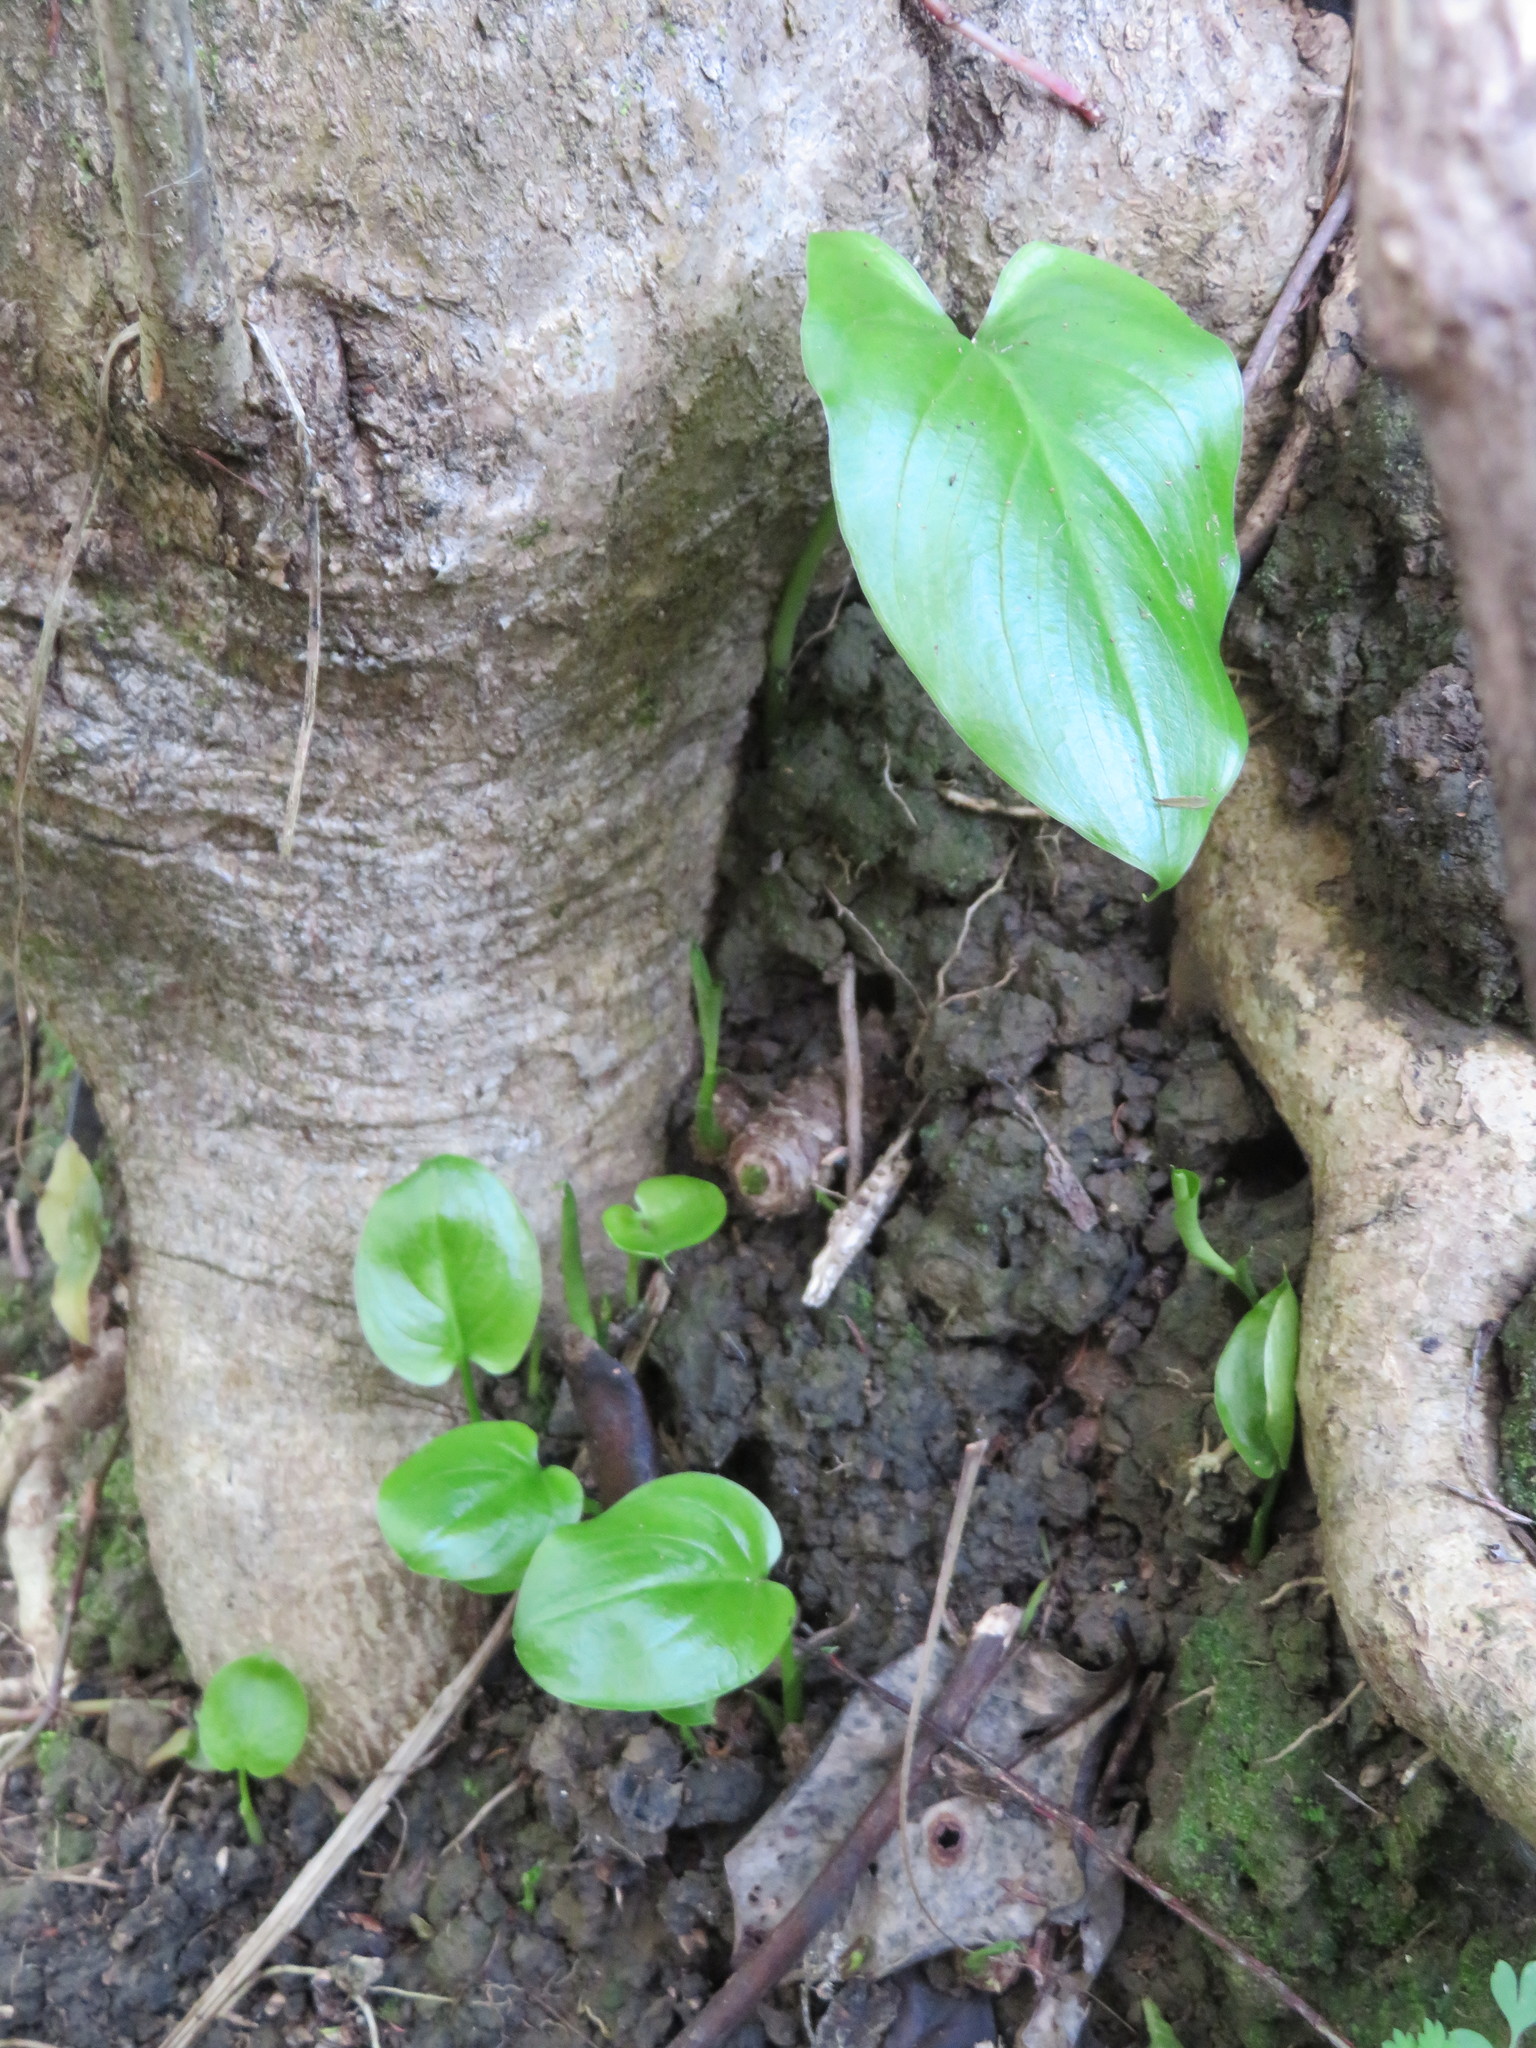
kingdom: Plantae
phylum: Tracheophyta
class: Liliopsida
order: Alismatales
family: Araceae
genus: Zantedeschia
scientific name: Zantedeschia aethiopica
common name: Altar-lily
